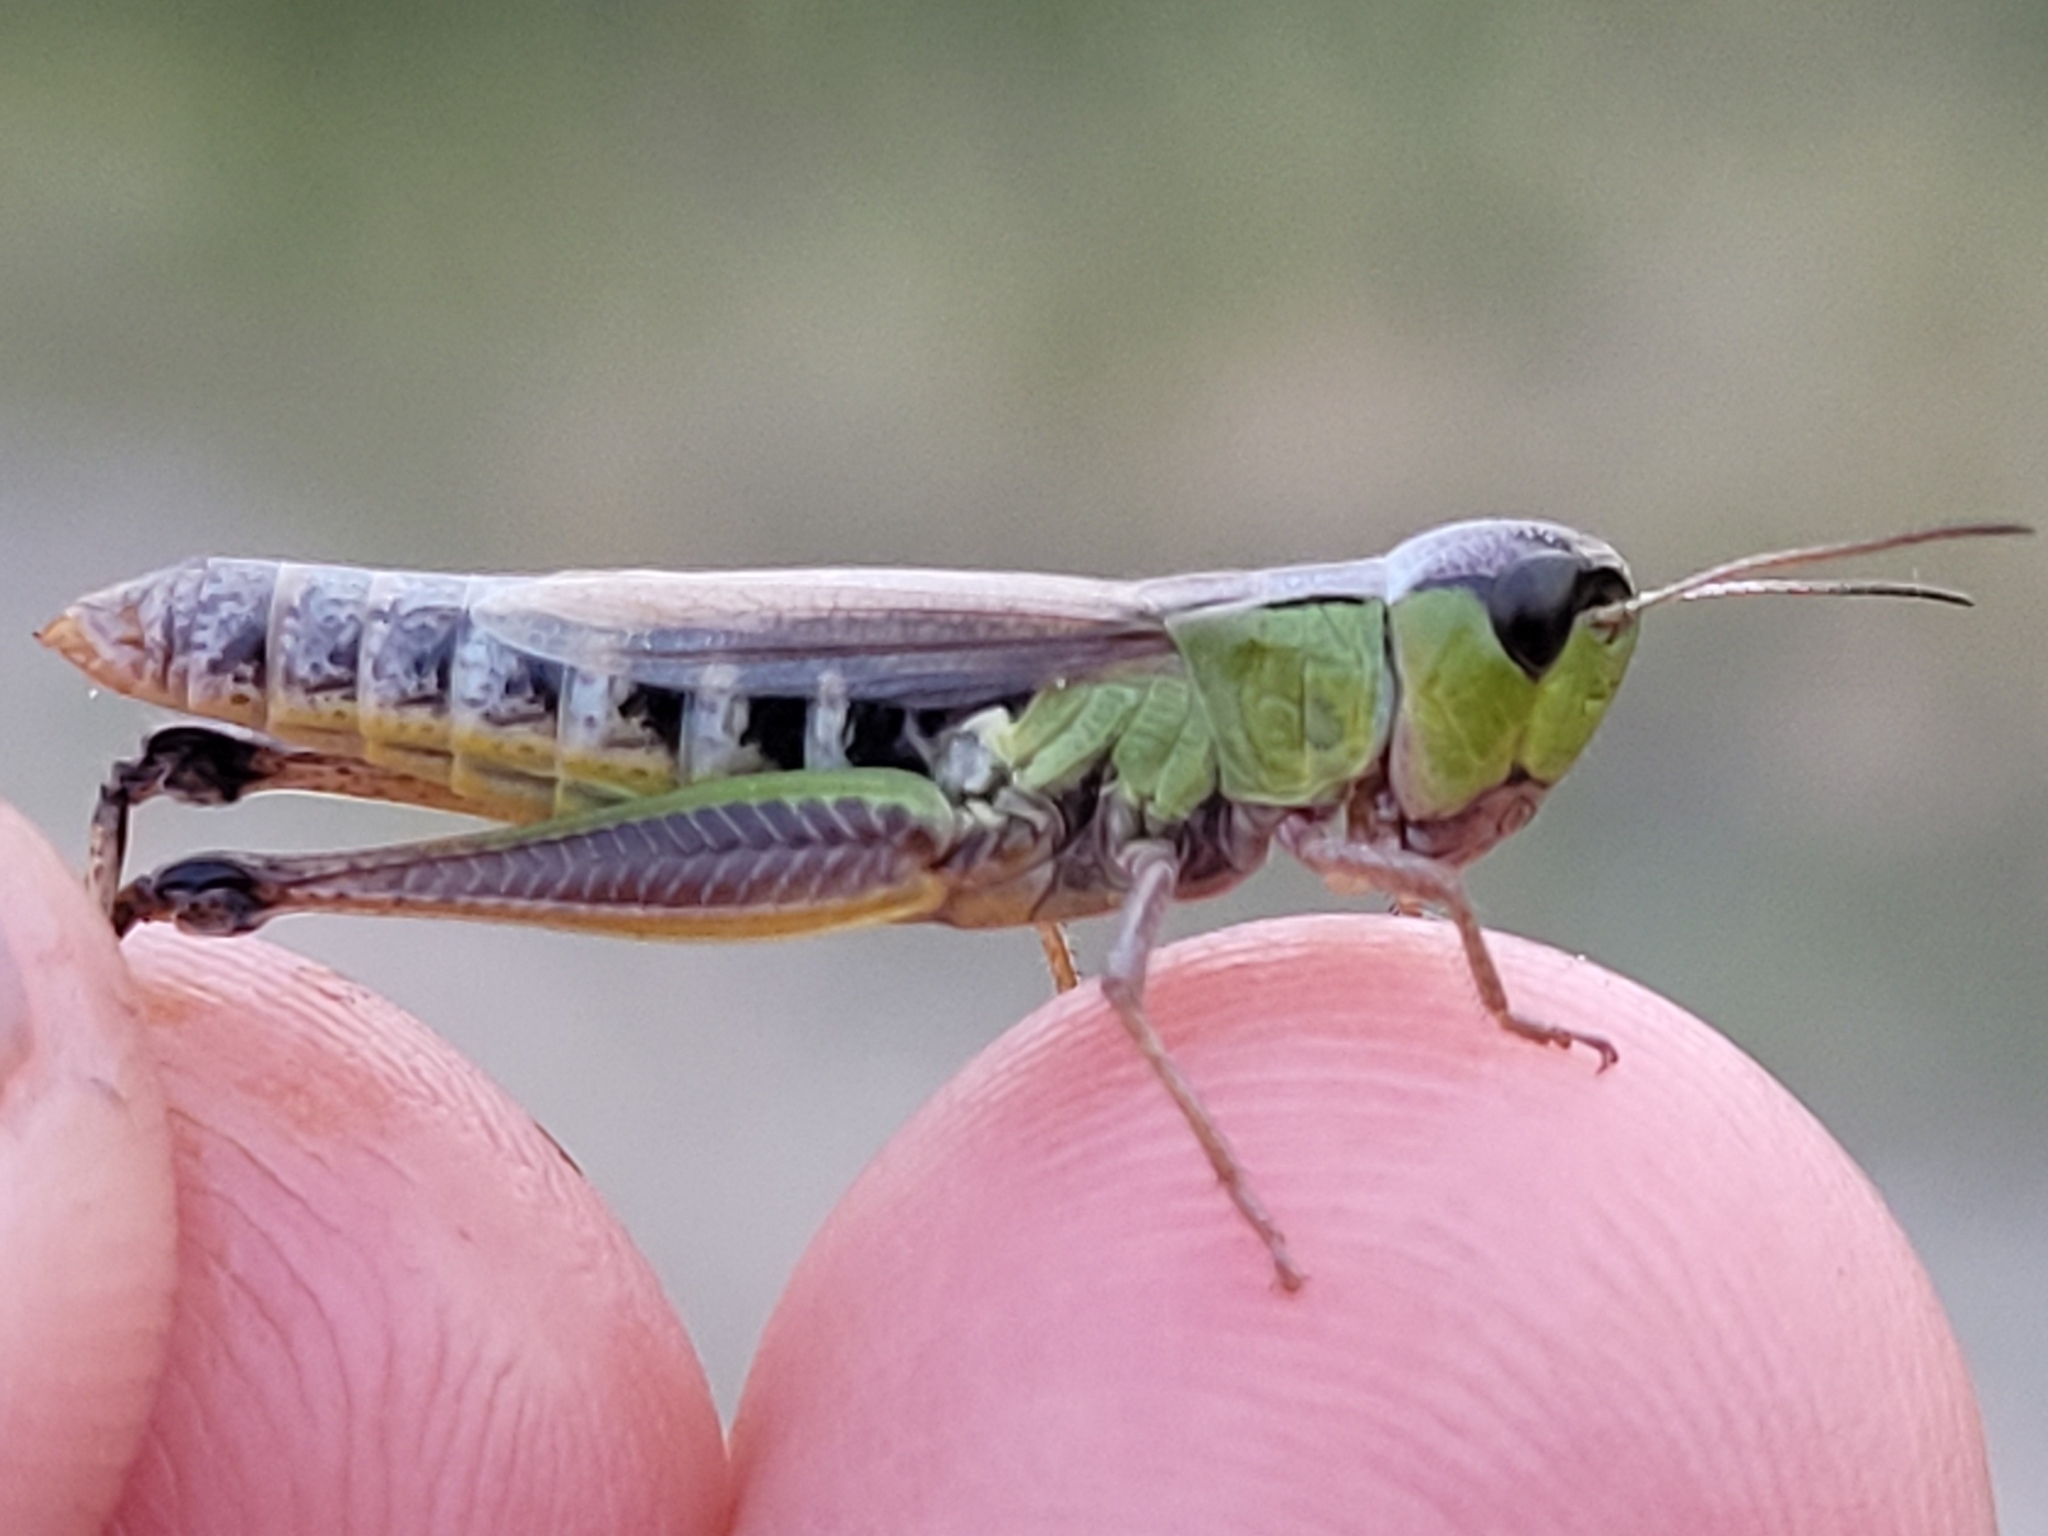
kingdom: Animalia
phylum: Arthropoda
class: Insecta
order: Orthoptera
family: Acrididae
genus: Pseudochorthippus
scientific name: Pseudochorthippus curtipennis
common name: Marsh meadow grasshopper
